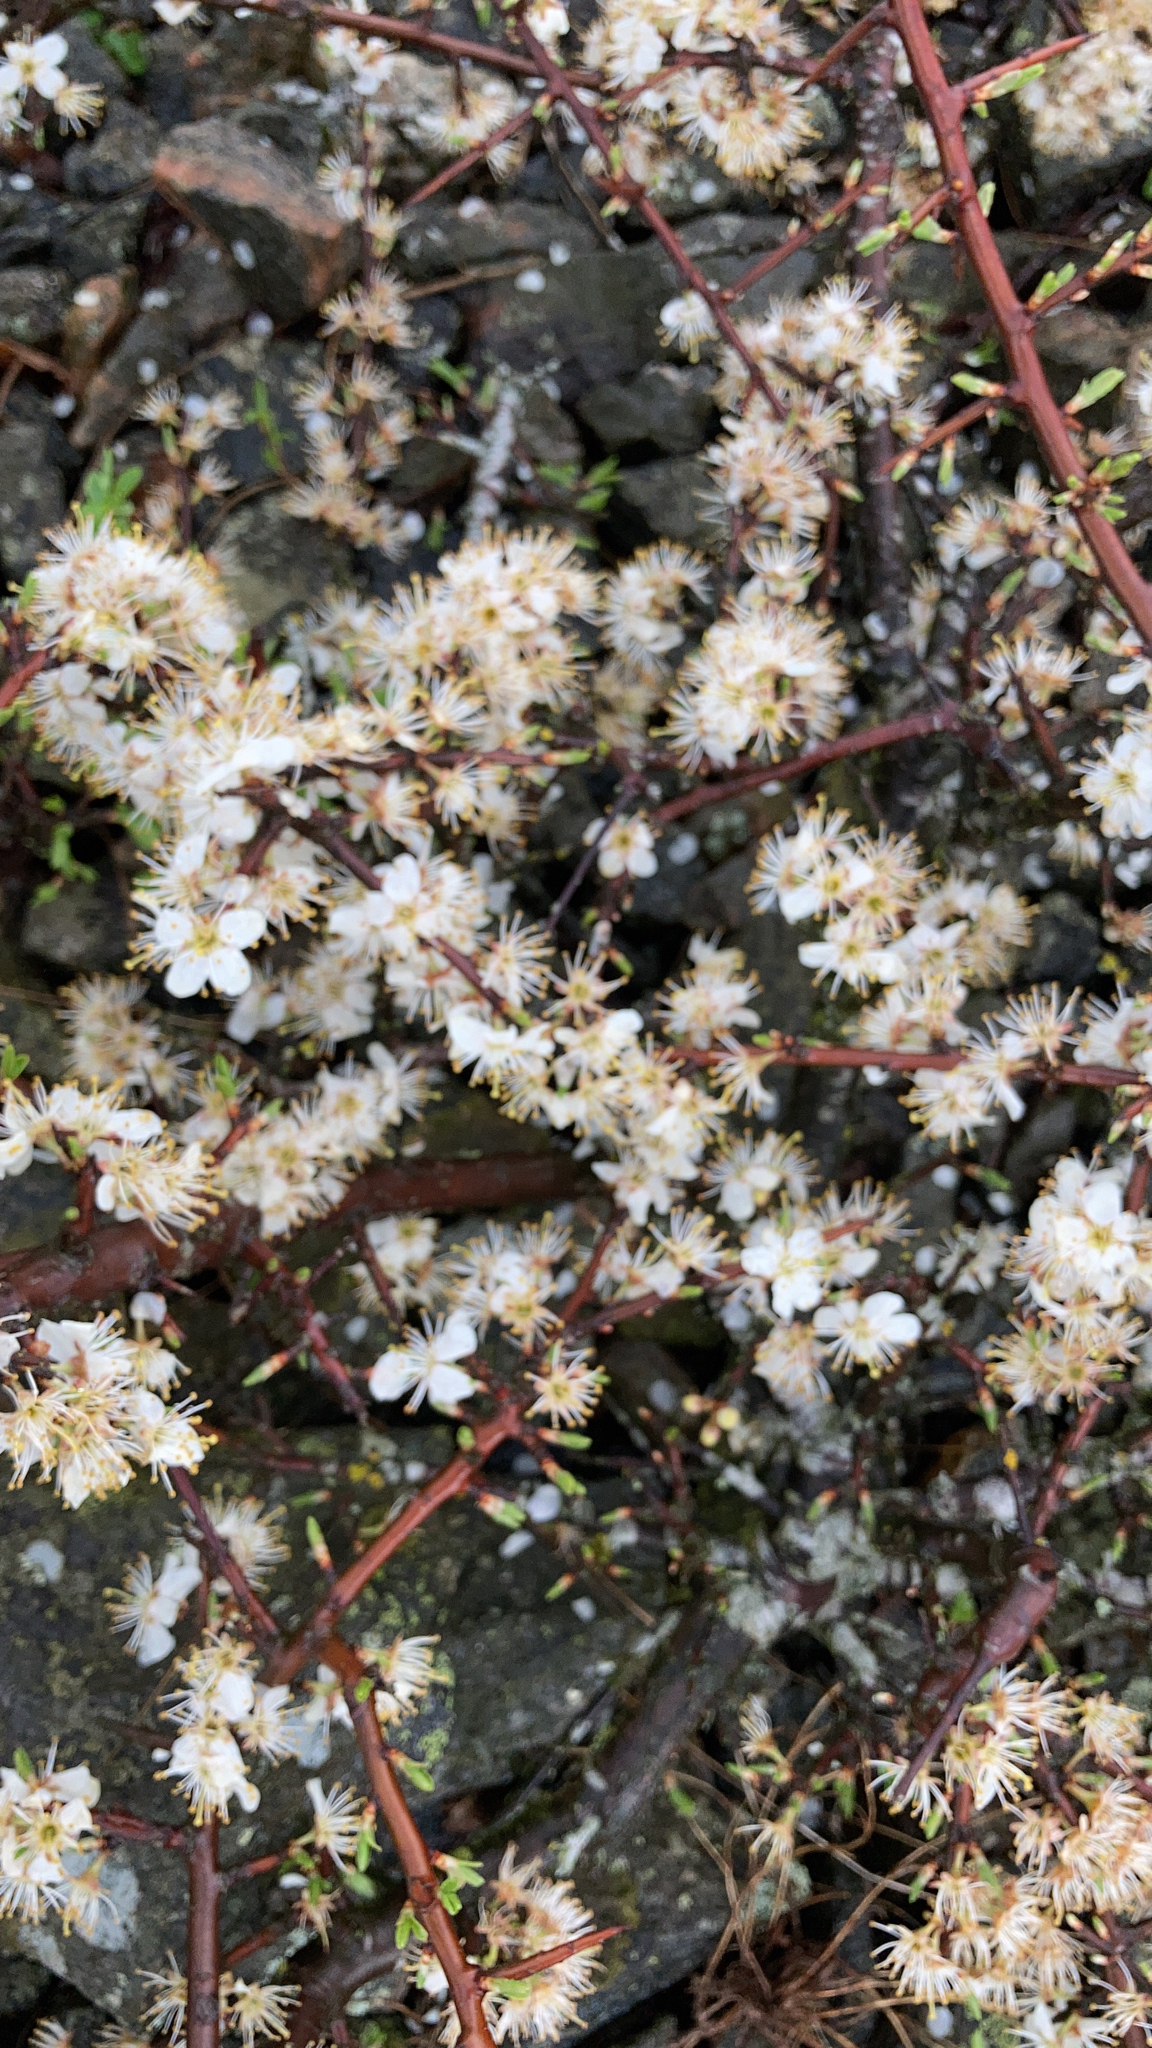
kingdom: Plantae
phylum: Tracheophyta
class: Magnoliopsida
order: Rosales
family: Rosaceae
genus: Prunus
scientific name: Prunus spinosa
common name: Blackthorn
